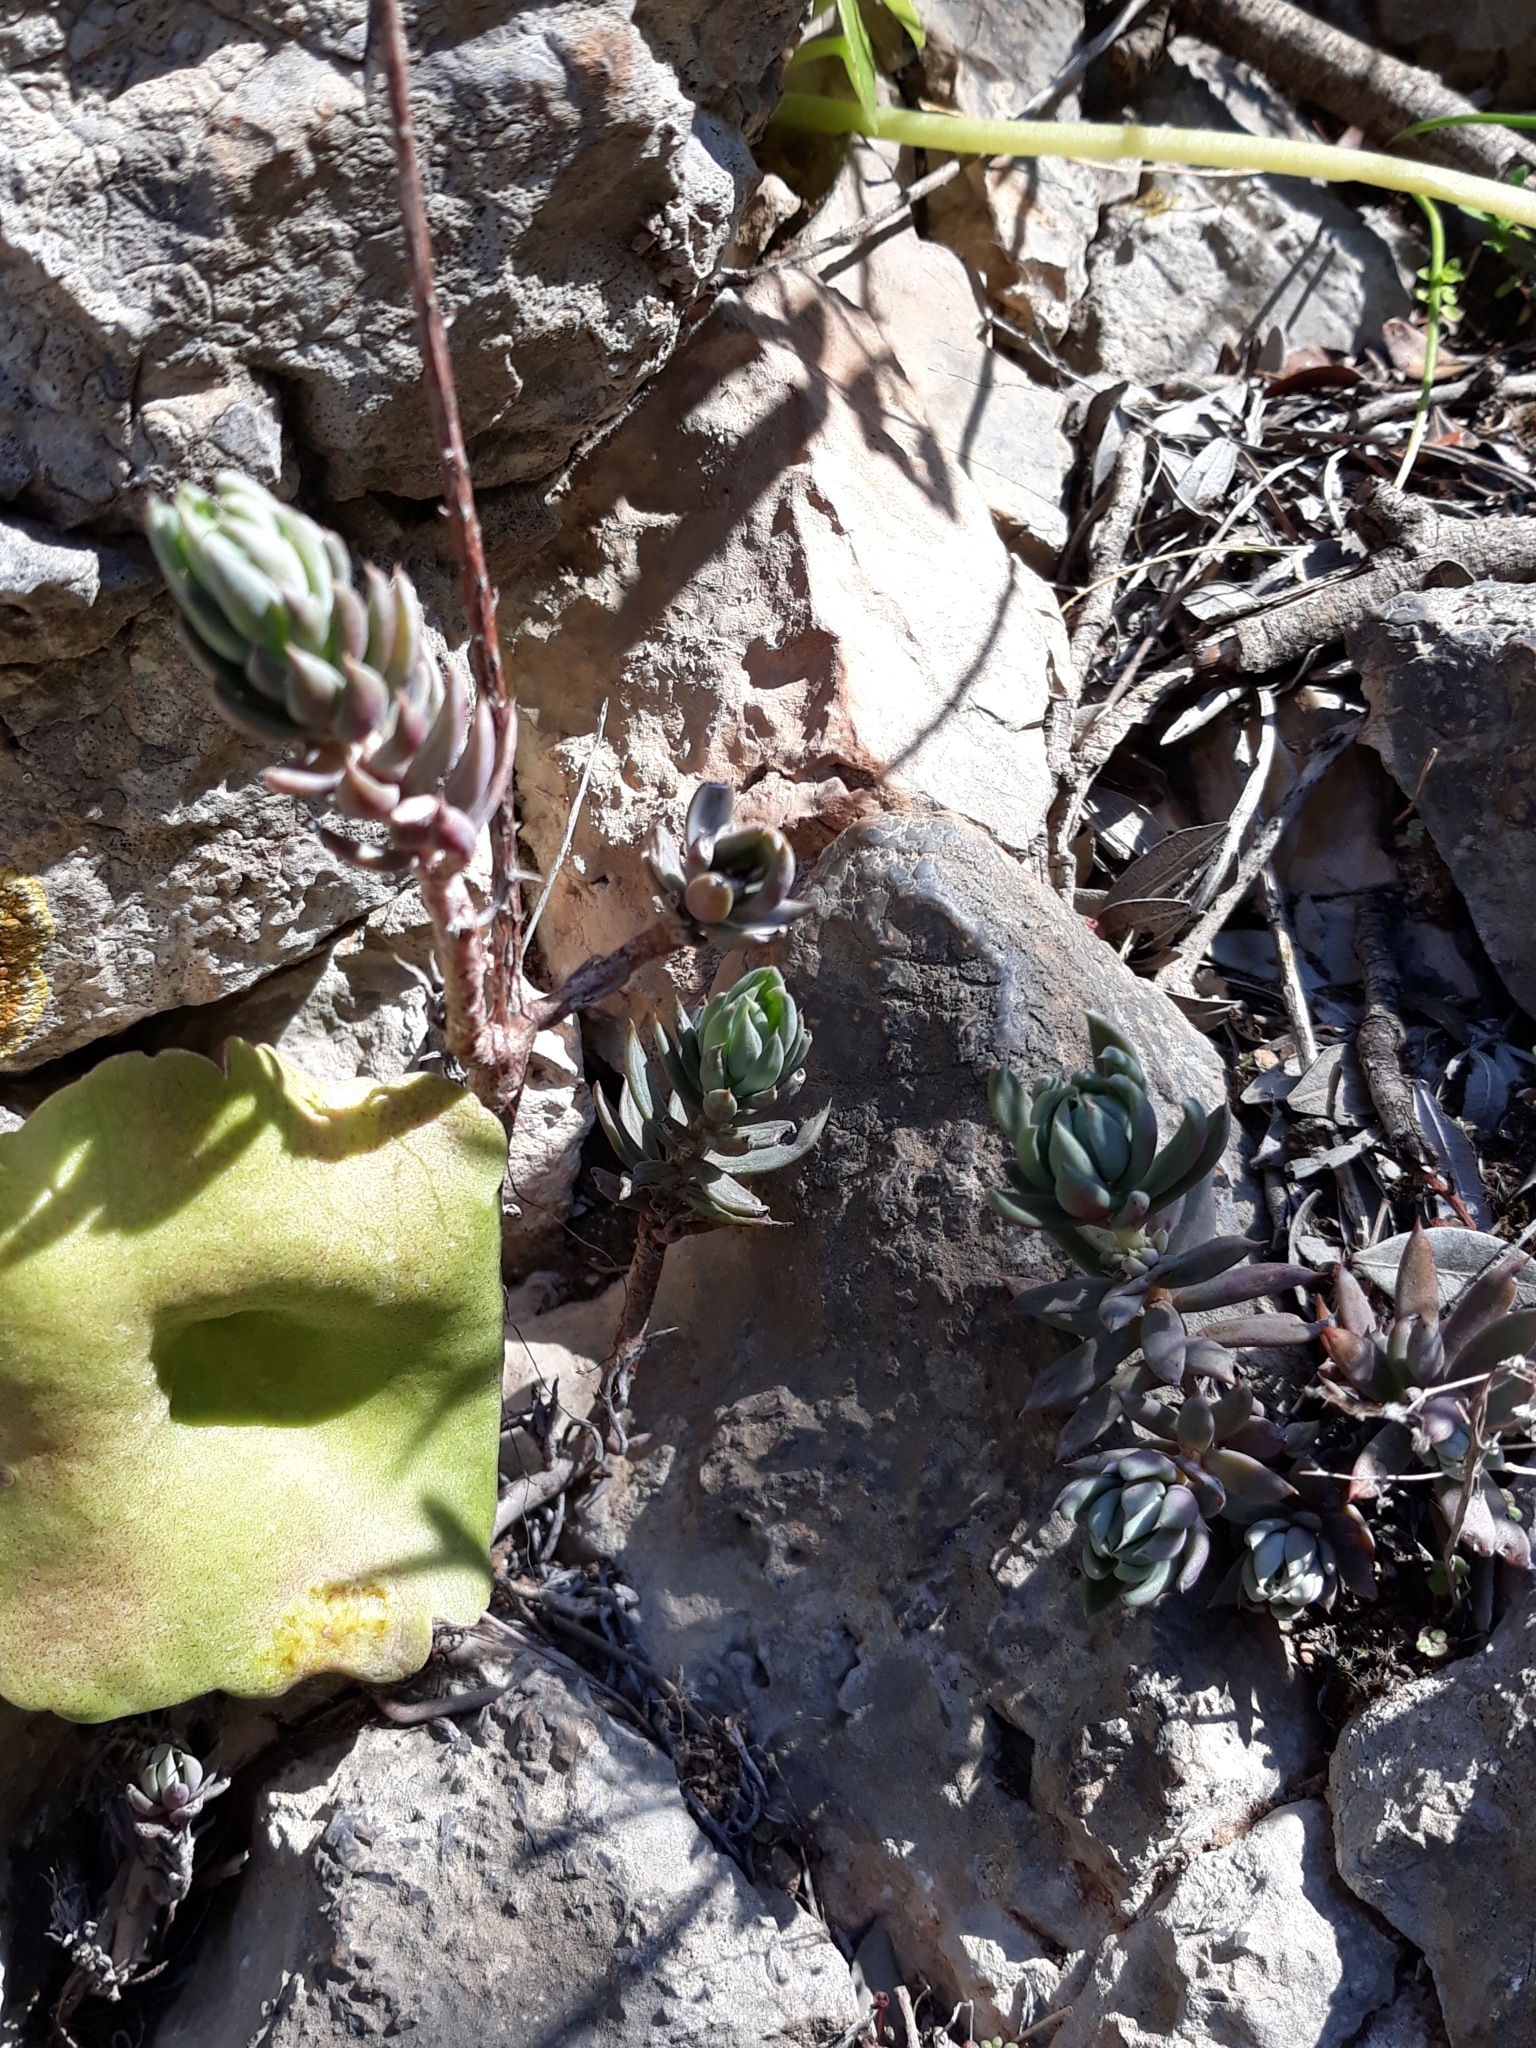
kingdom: Plantae
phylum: Tracheophyta
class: Magnoliopsida
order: Saxifragales
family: Crassulaceae
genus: Petrosedum
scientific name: Petrosedum sediforme
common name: Pale stonecrop
